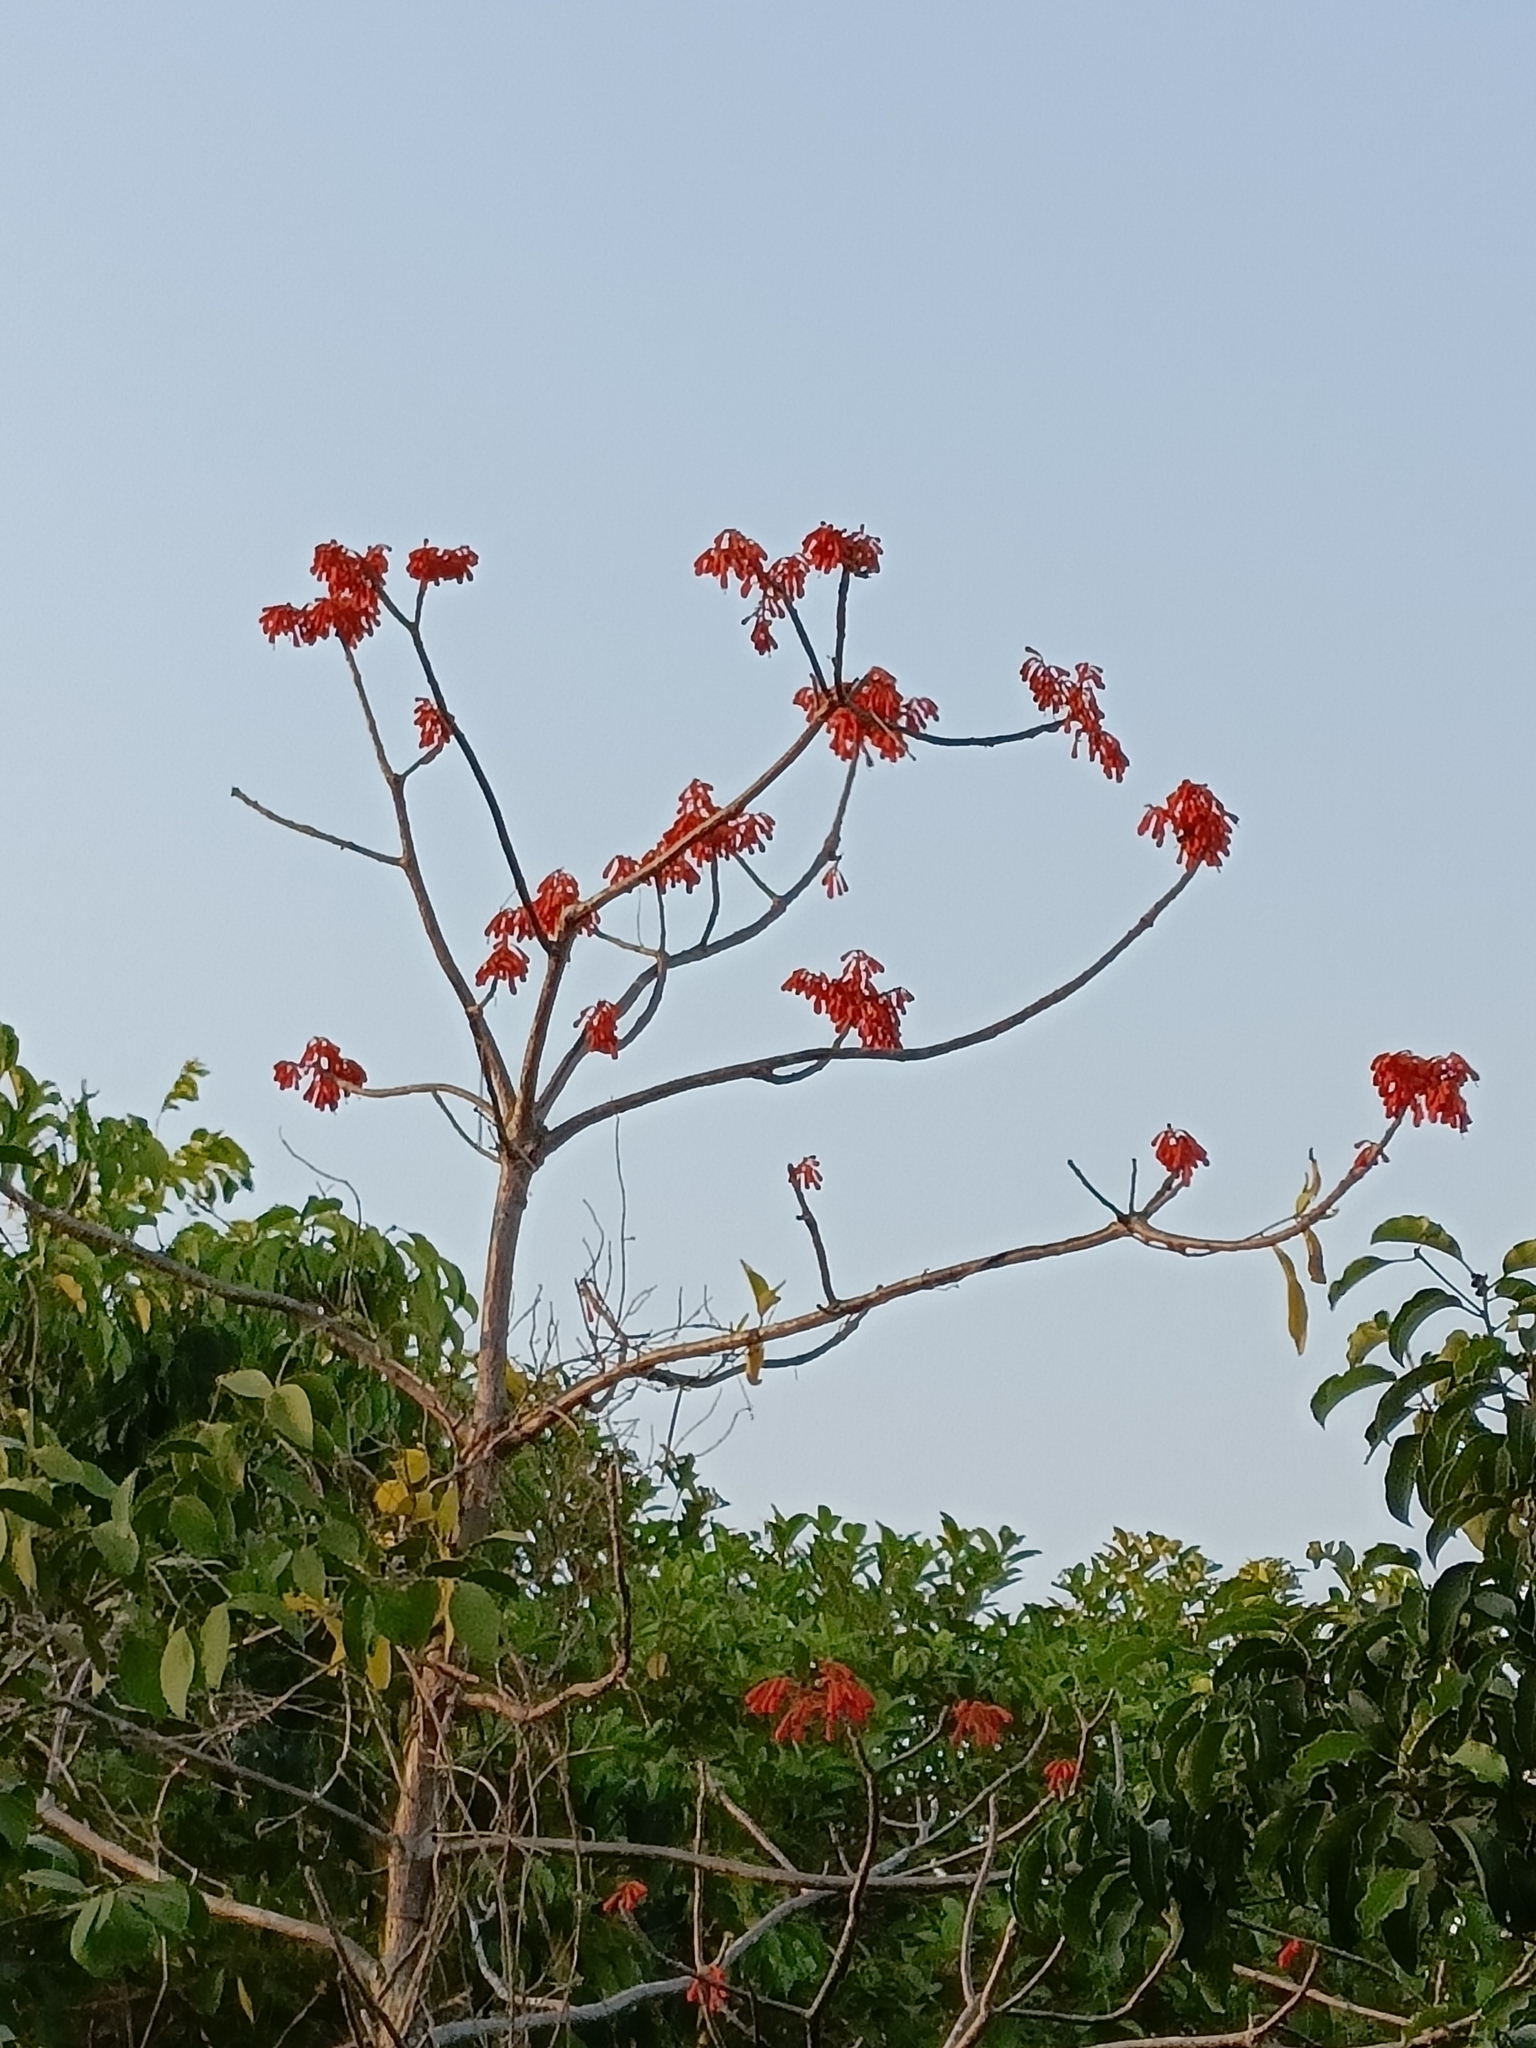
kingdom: Plantae
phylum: Tracheophyta
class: Magnoliopsida
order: Malvales
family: Malvaceae
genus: Firmiana
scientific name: Firmiana colorata
